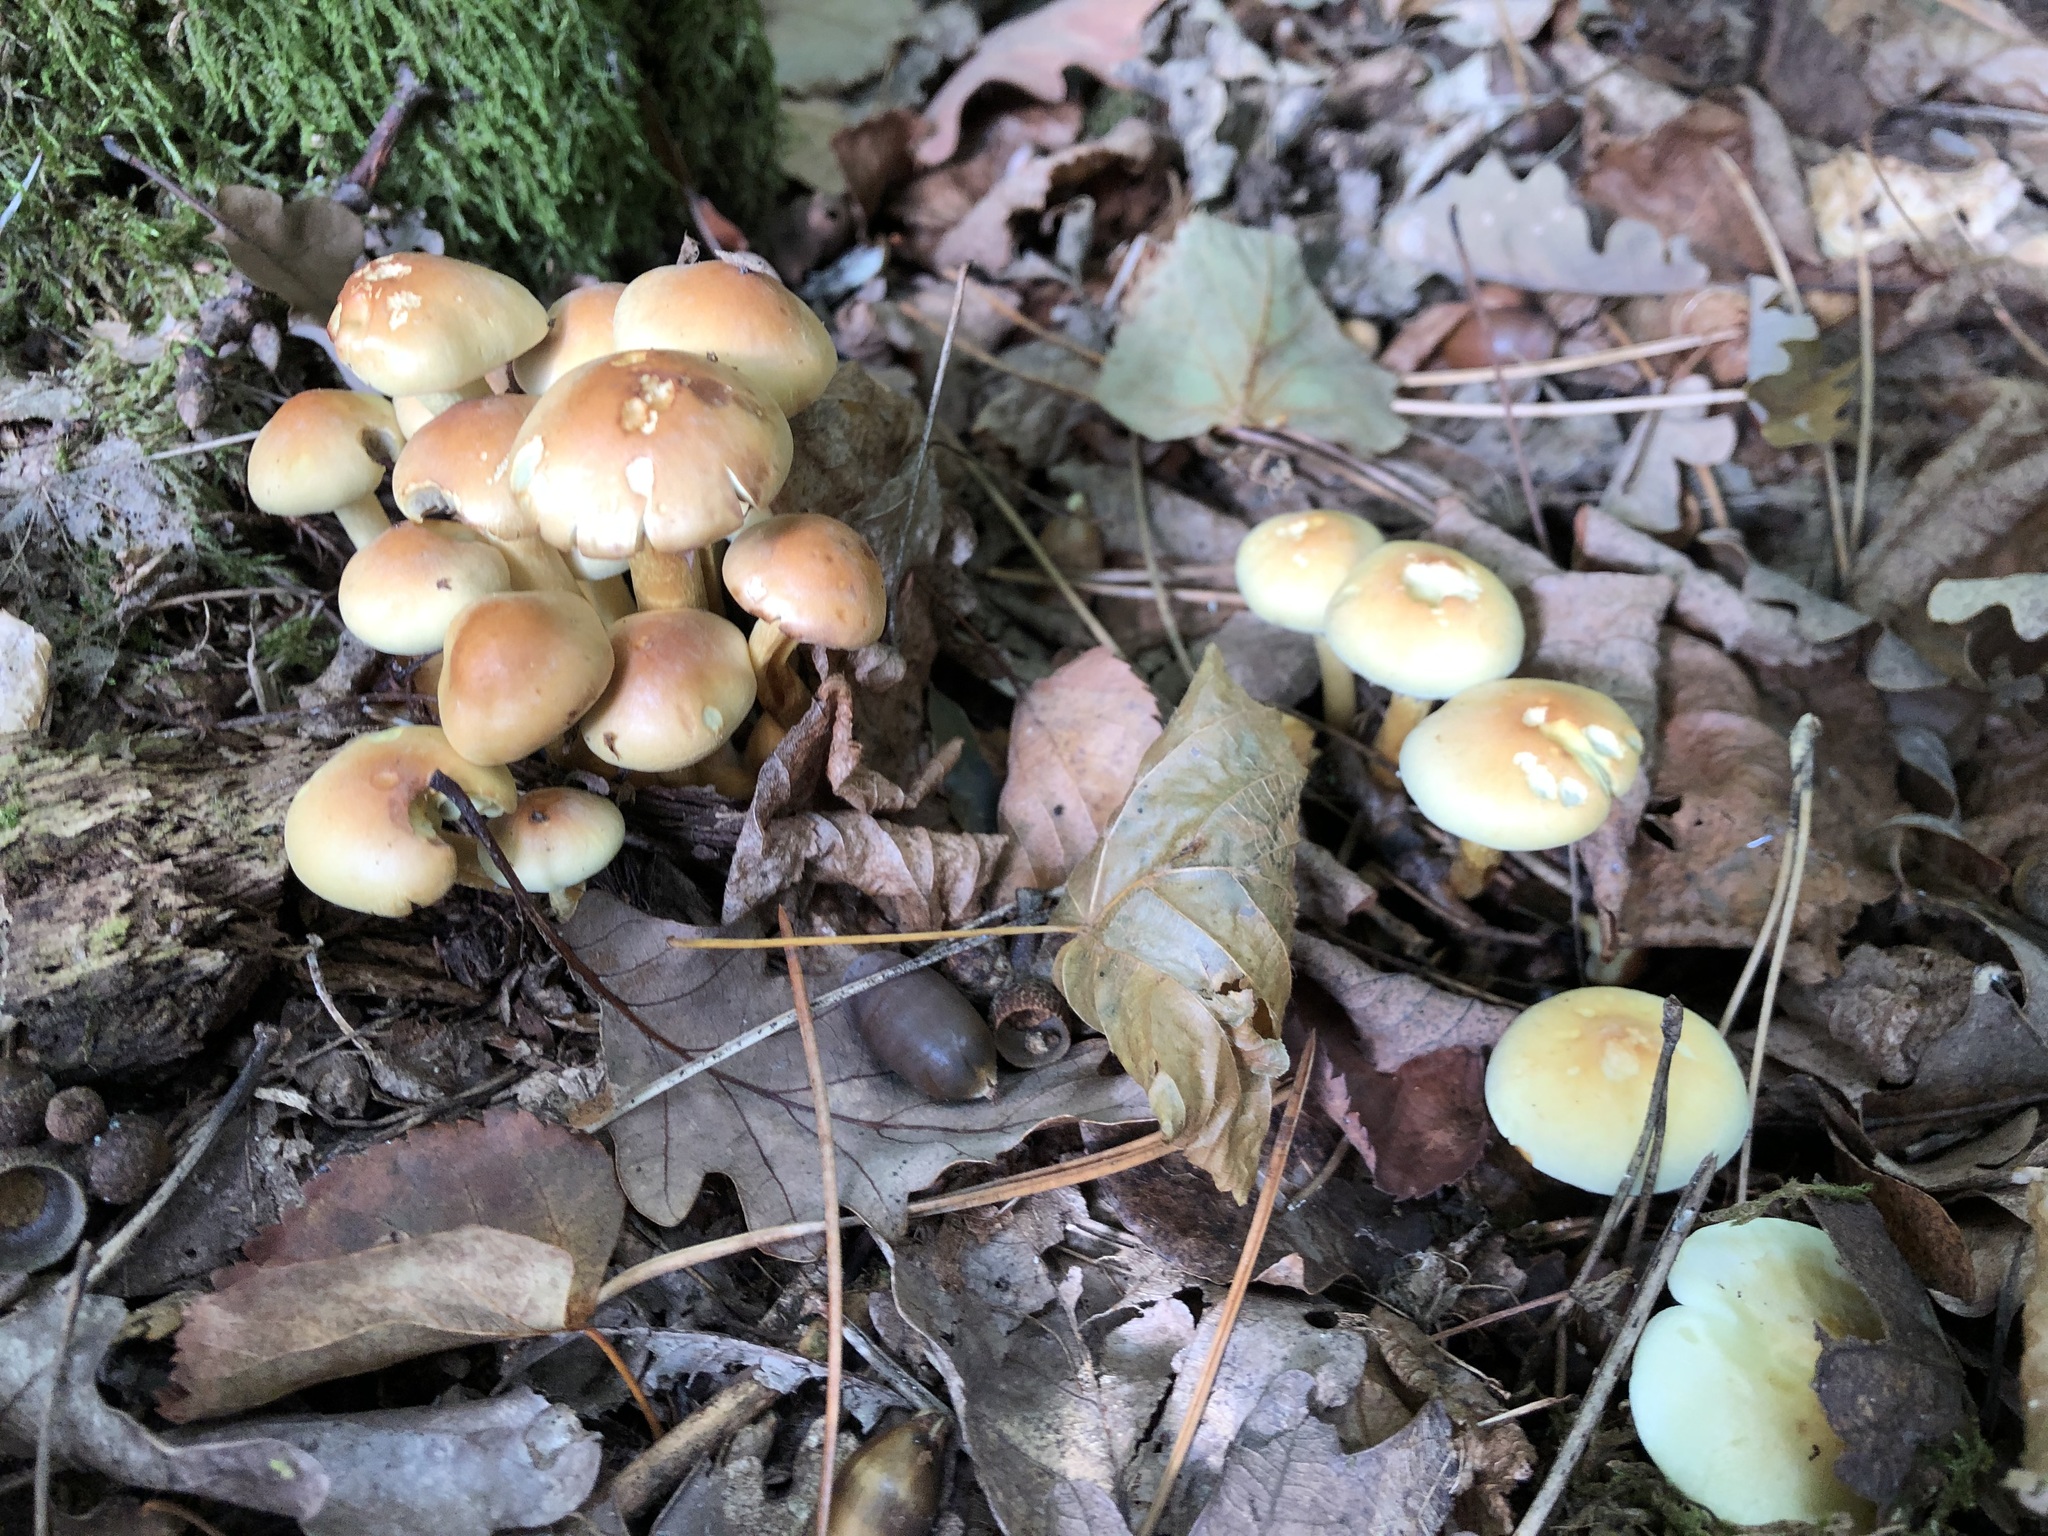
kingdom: Fungi
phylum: Basidiomycota
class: Agaricomycetes
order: Agaricales
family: Strophariaceae
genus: Hypholoma
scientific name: Hypholoma fasciculare
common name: Sulphur tuft
